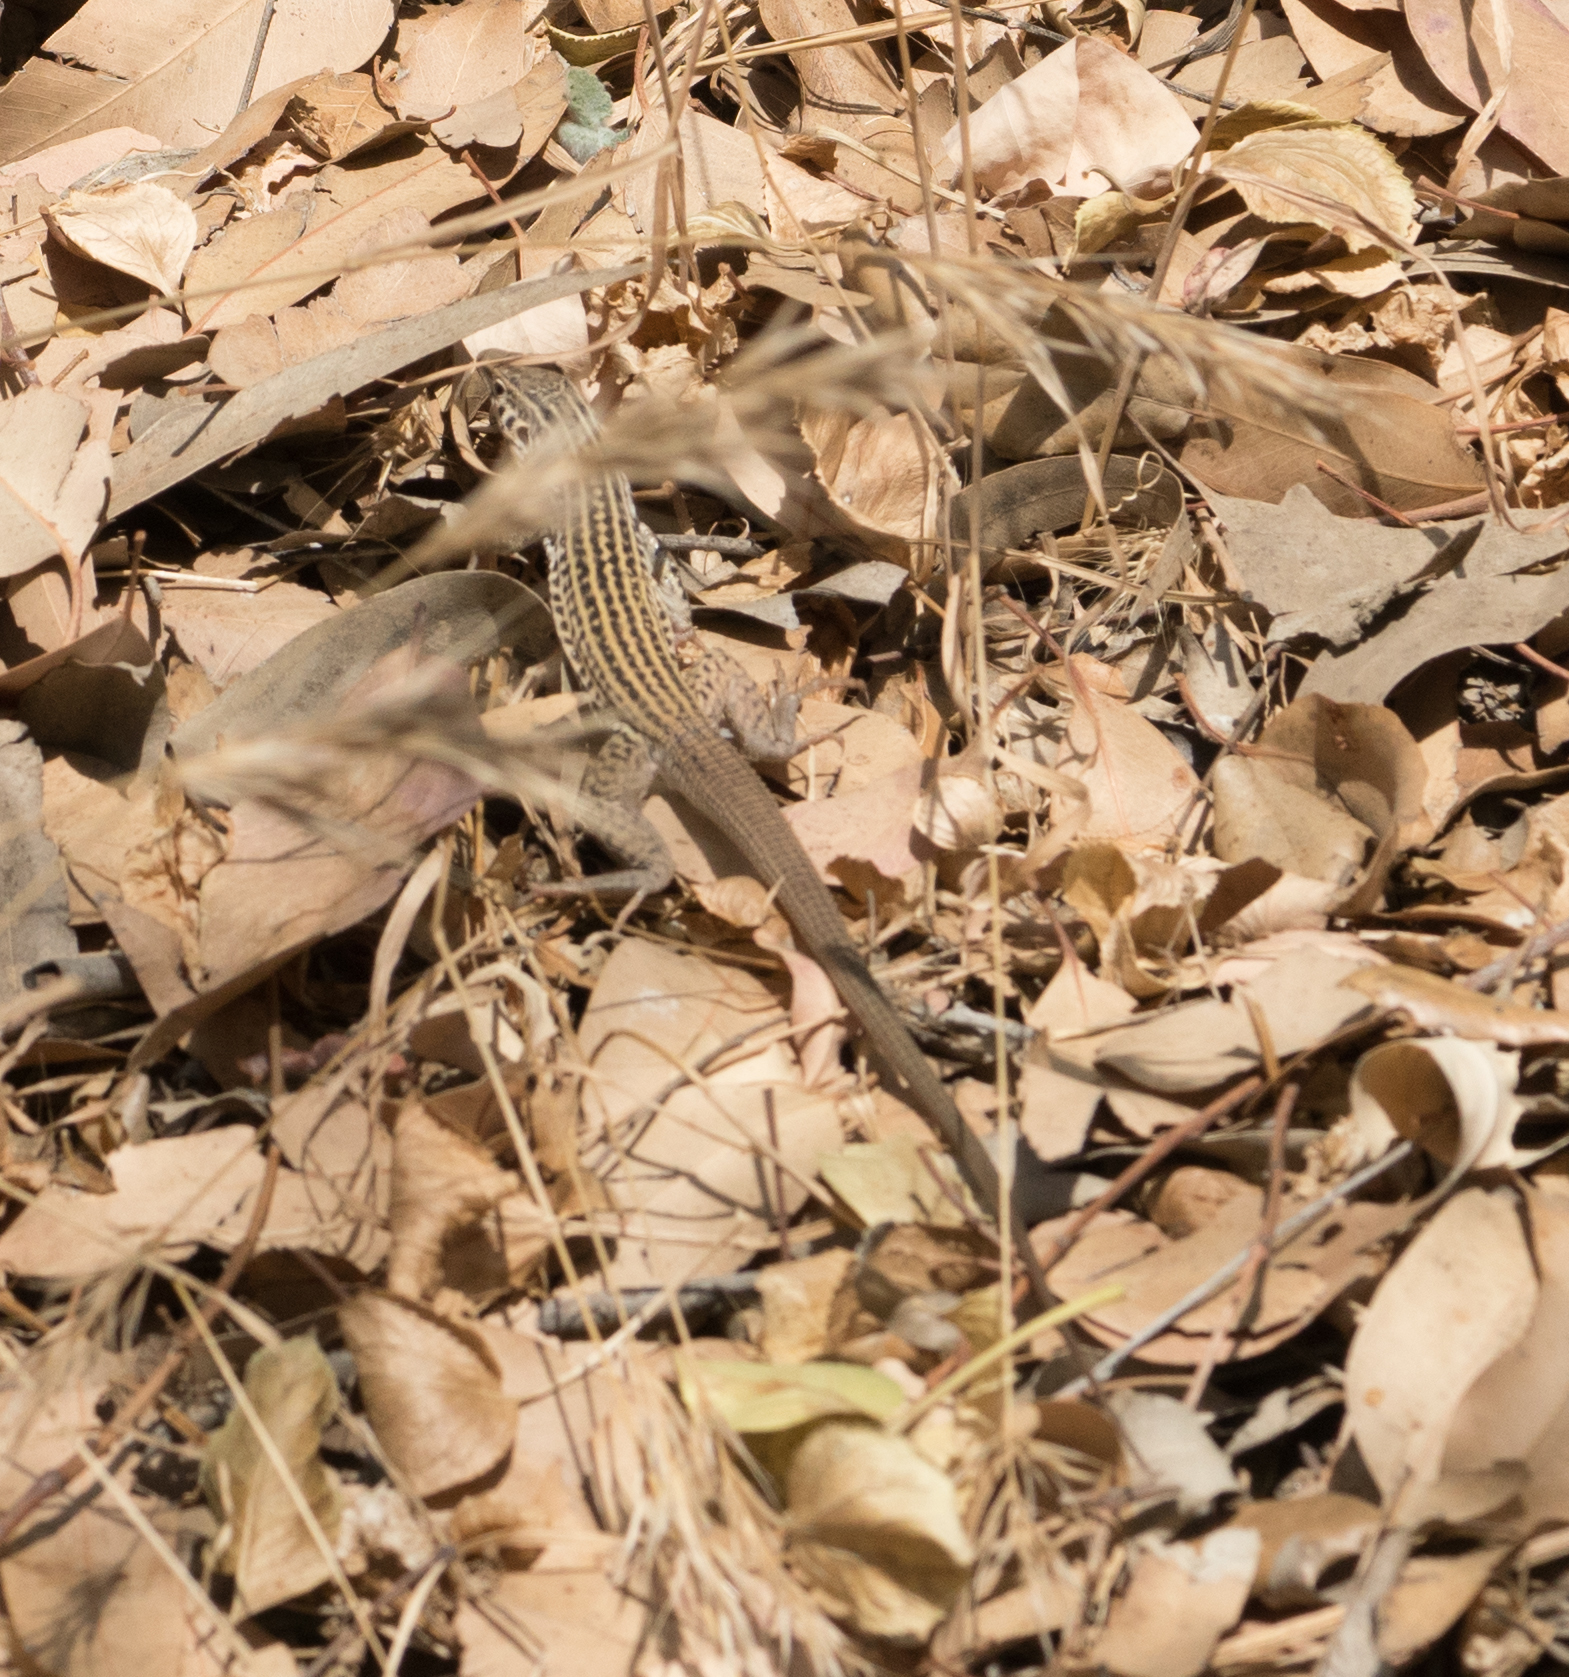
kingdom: Animalia
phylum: Chordata
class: Squamata
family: Teiidae
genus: Aspidoscelis
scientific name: Aspidoscelis tigris
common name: Tiger whiptail
